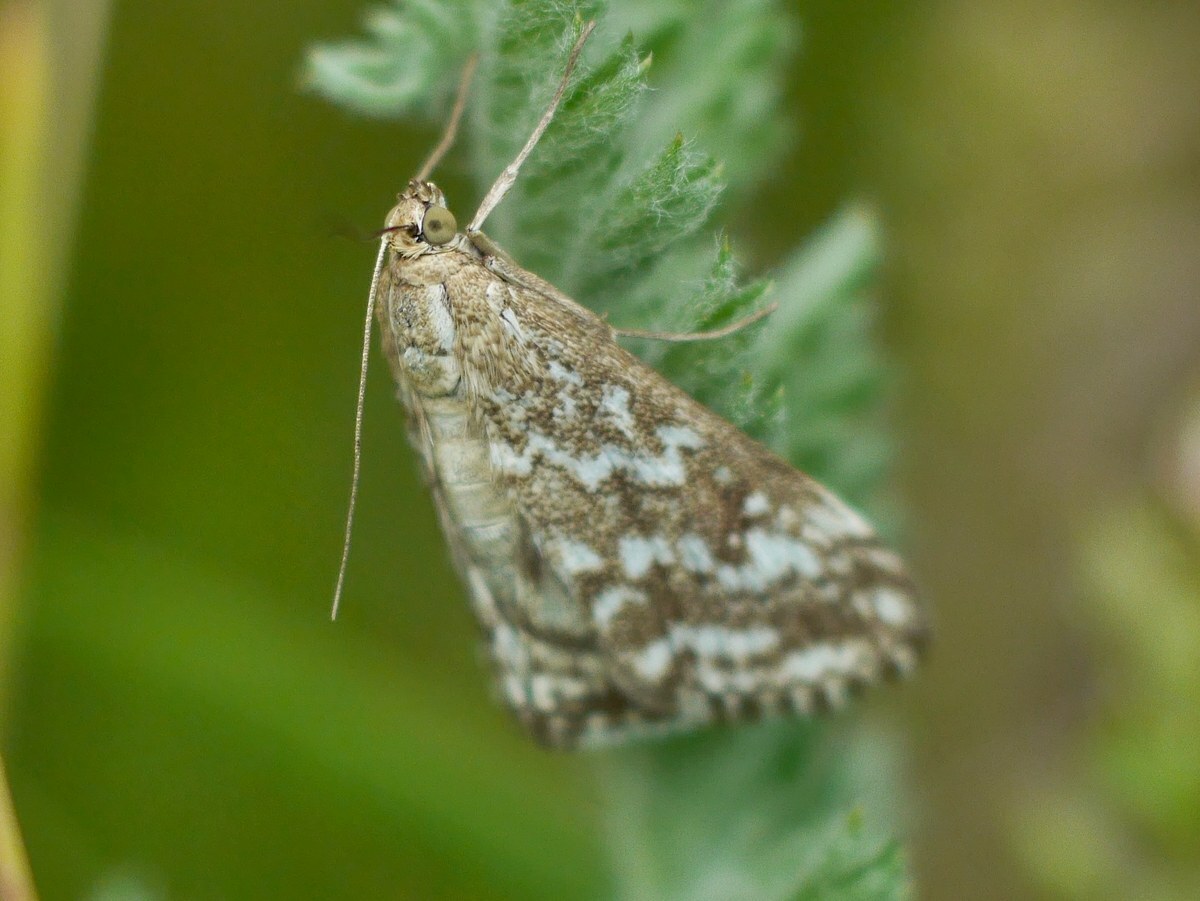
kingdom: Animalia
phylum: Arthropoda
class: Insecta
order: Lepidoptera
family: Crambidae
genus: Evergestis
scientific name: Evergestis frumentalis
